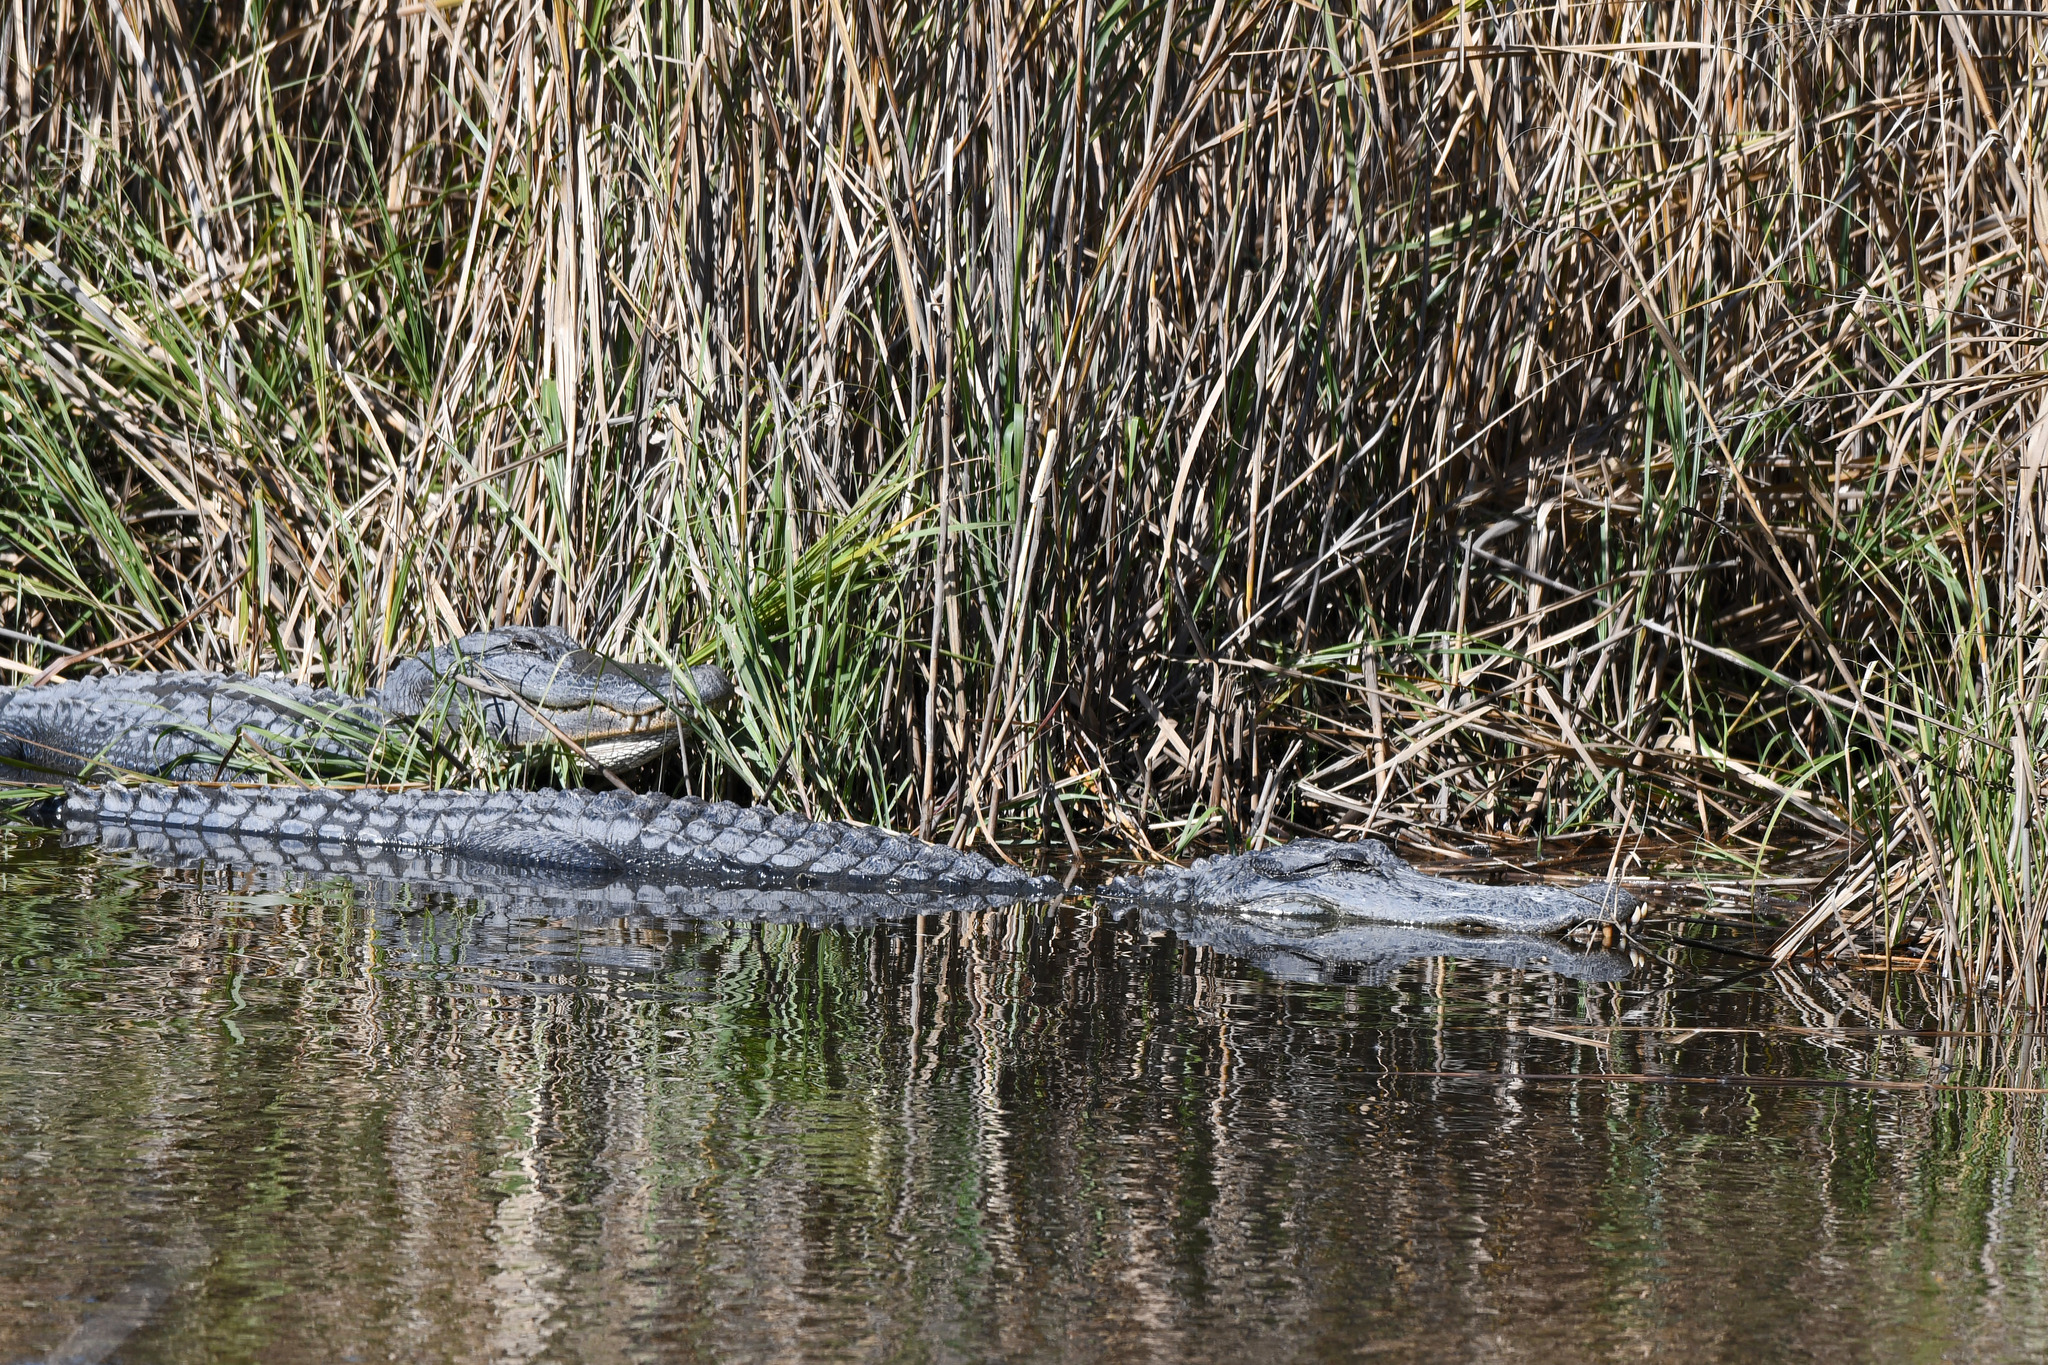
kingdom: Animalia
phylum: Chordata
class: Crocodylia
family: Alligatoridae
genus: Alligator
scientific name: Alligator mississippiensis
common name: American alligator
